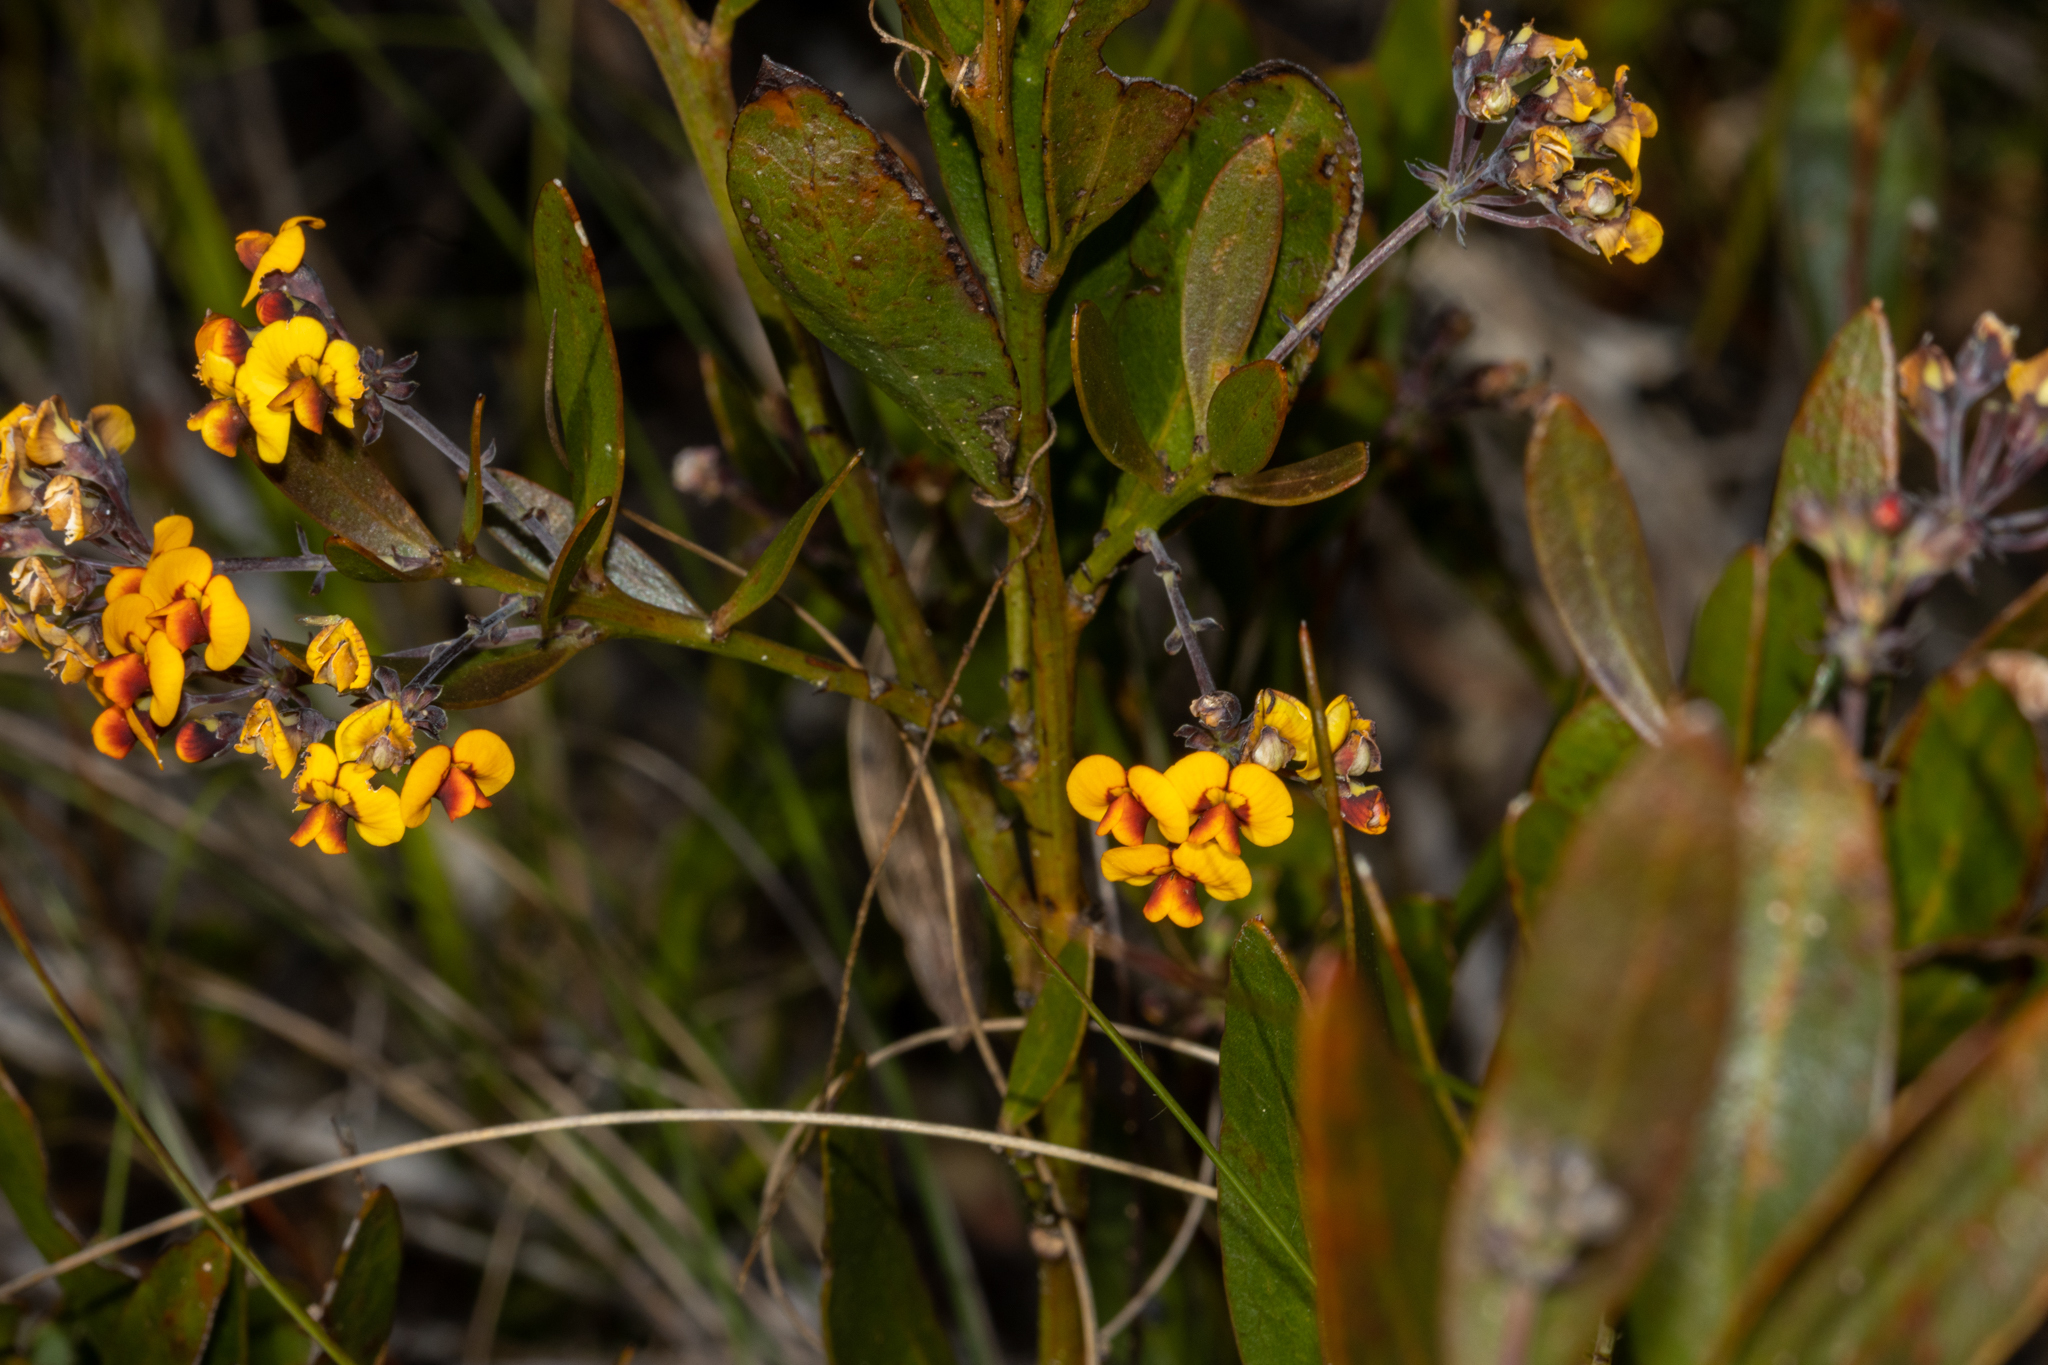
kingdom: Plantae
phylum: Tracheophyta
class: Magnoliopsida
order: Fabales
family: Fabaceae
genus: Daviesia
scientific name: Daviesia corymbosa
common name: Narrow-leaf bitter-pea
